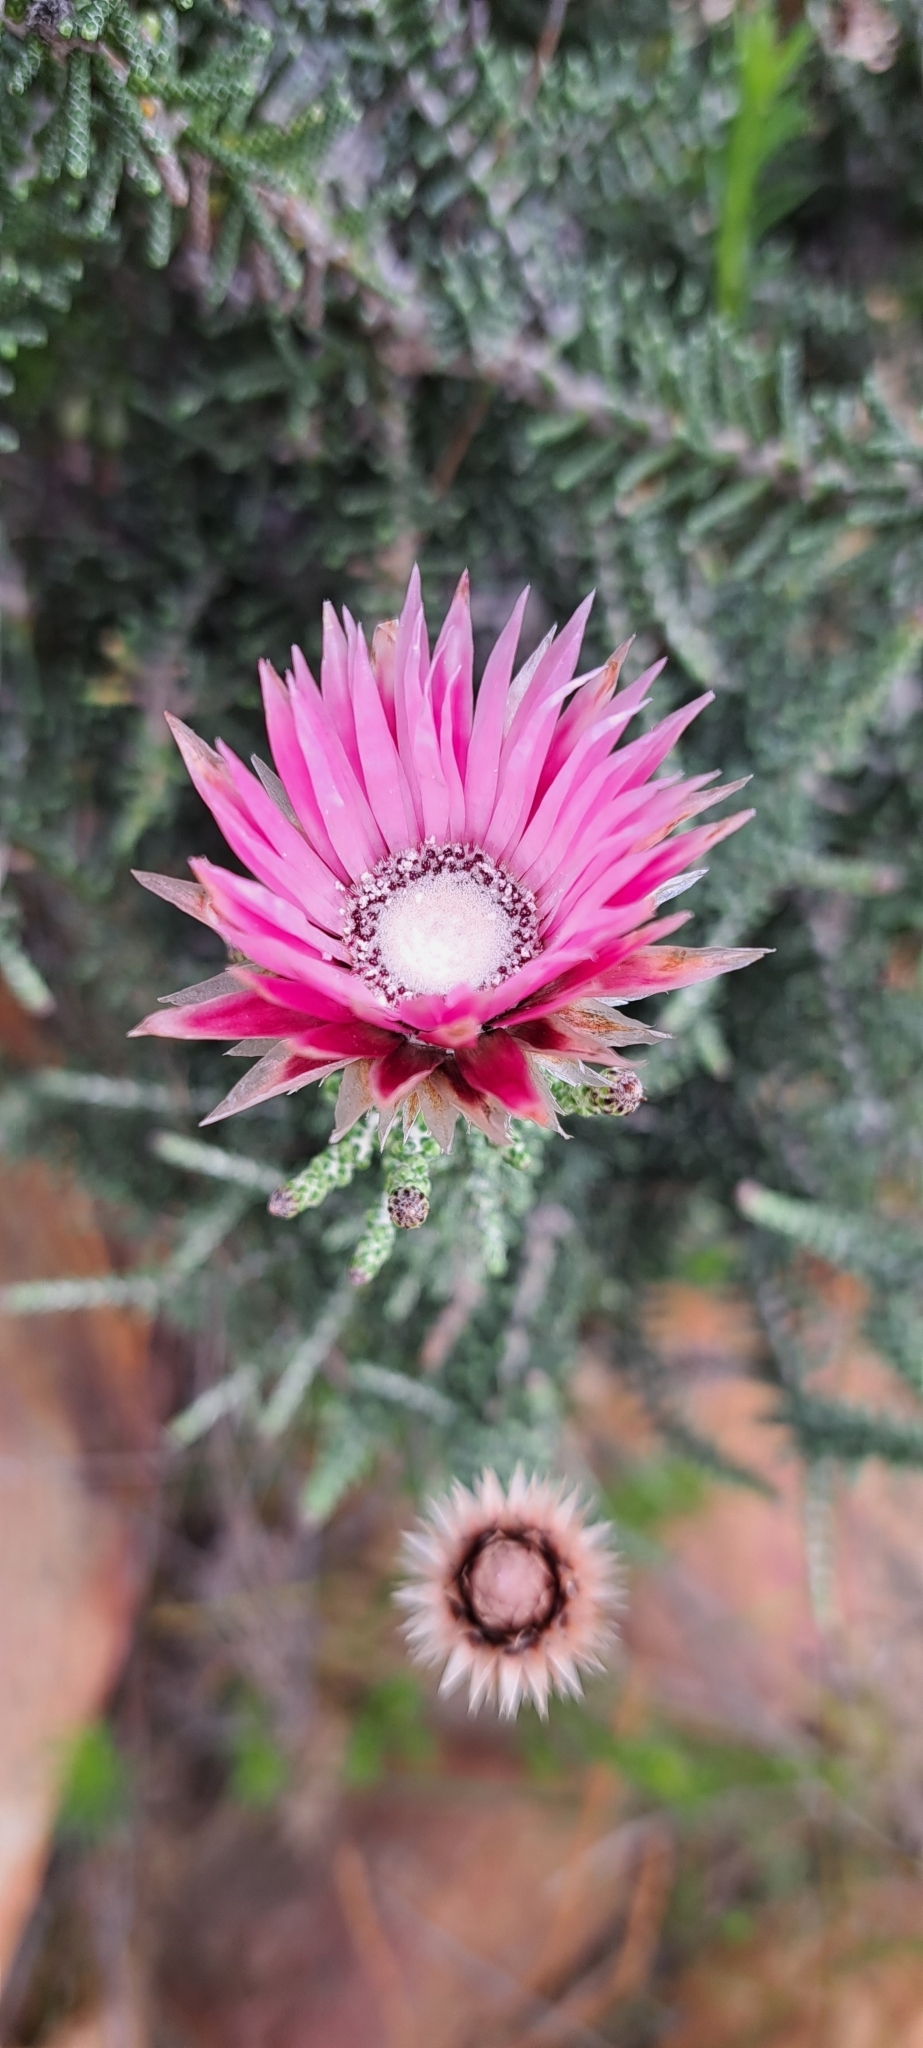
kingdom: Plantae
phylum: Tracheophyta
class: Magnoliopsida
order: Asterales
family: Asteraceae
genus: Phaenocoma
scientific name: Phaenocoma prolifera
